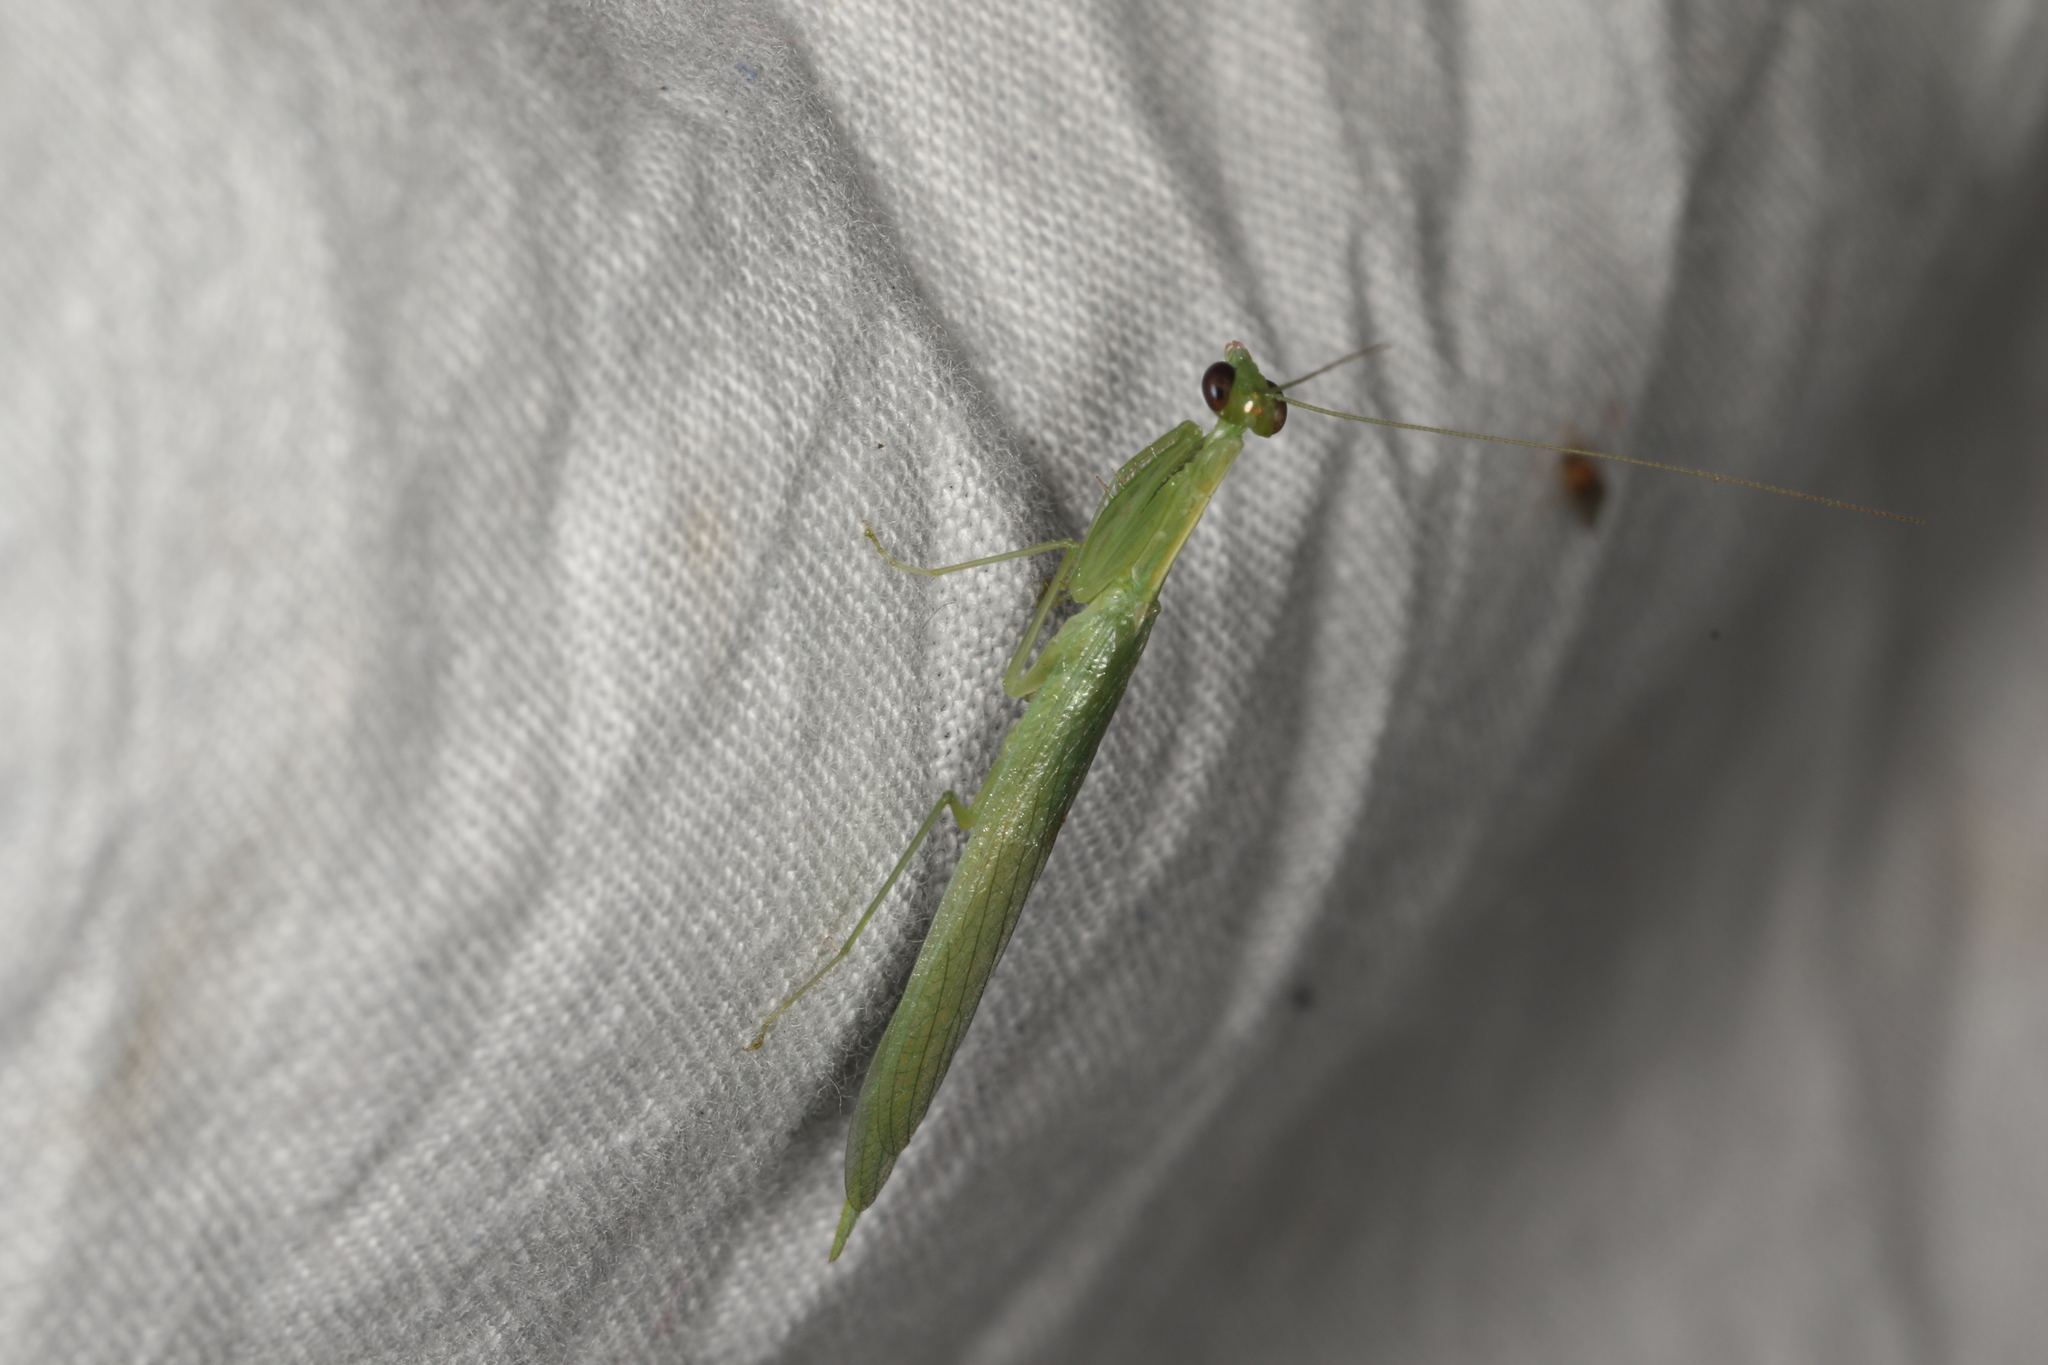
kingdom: Animalia
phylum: Arthropoda
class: Insecta
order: Mantodea
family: Nanomantidae
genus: Kongobatha
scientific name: Kongobatha diademata
